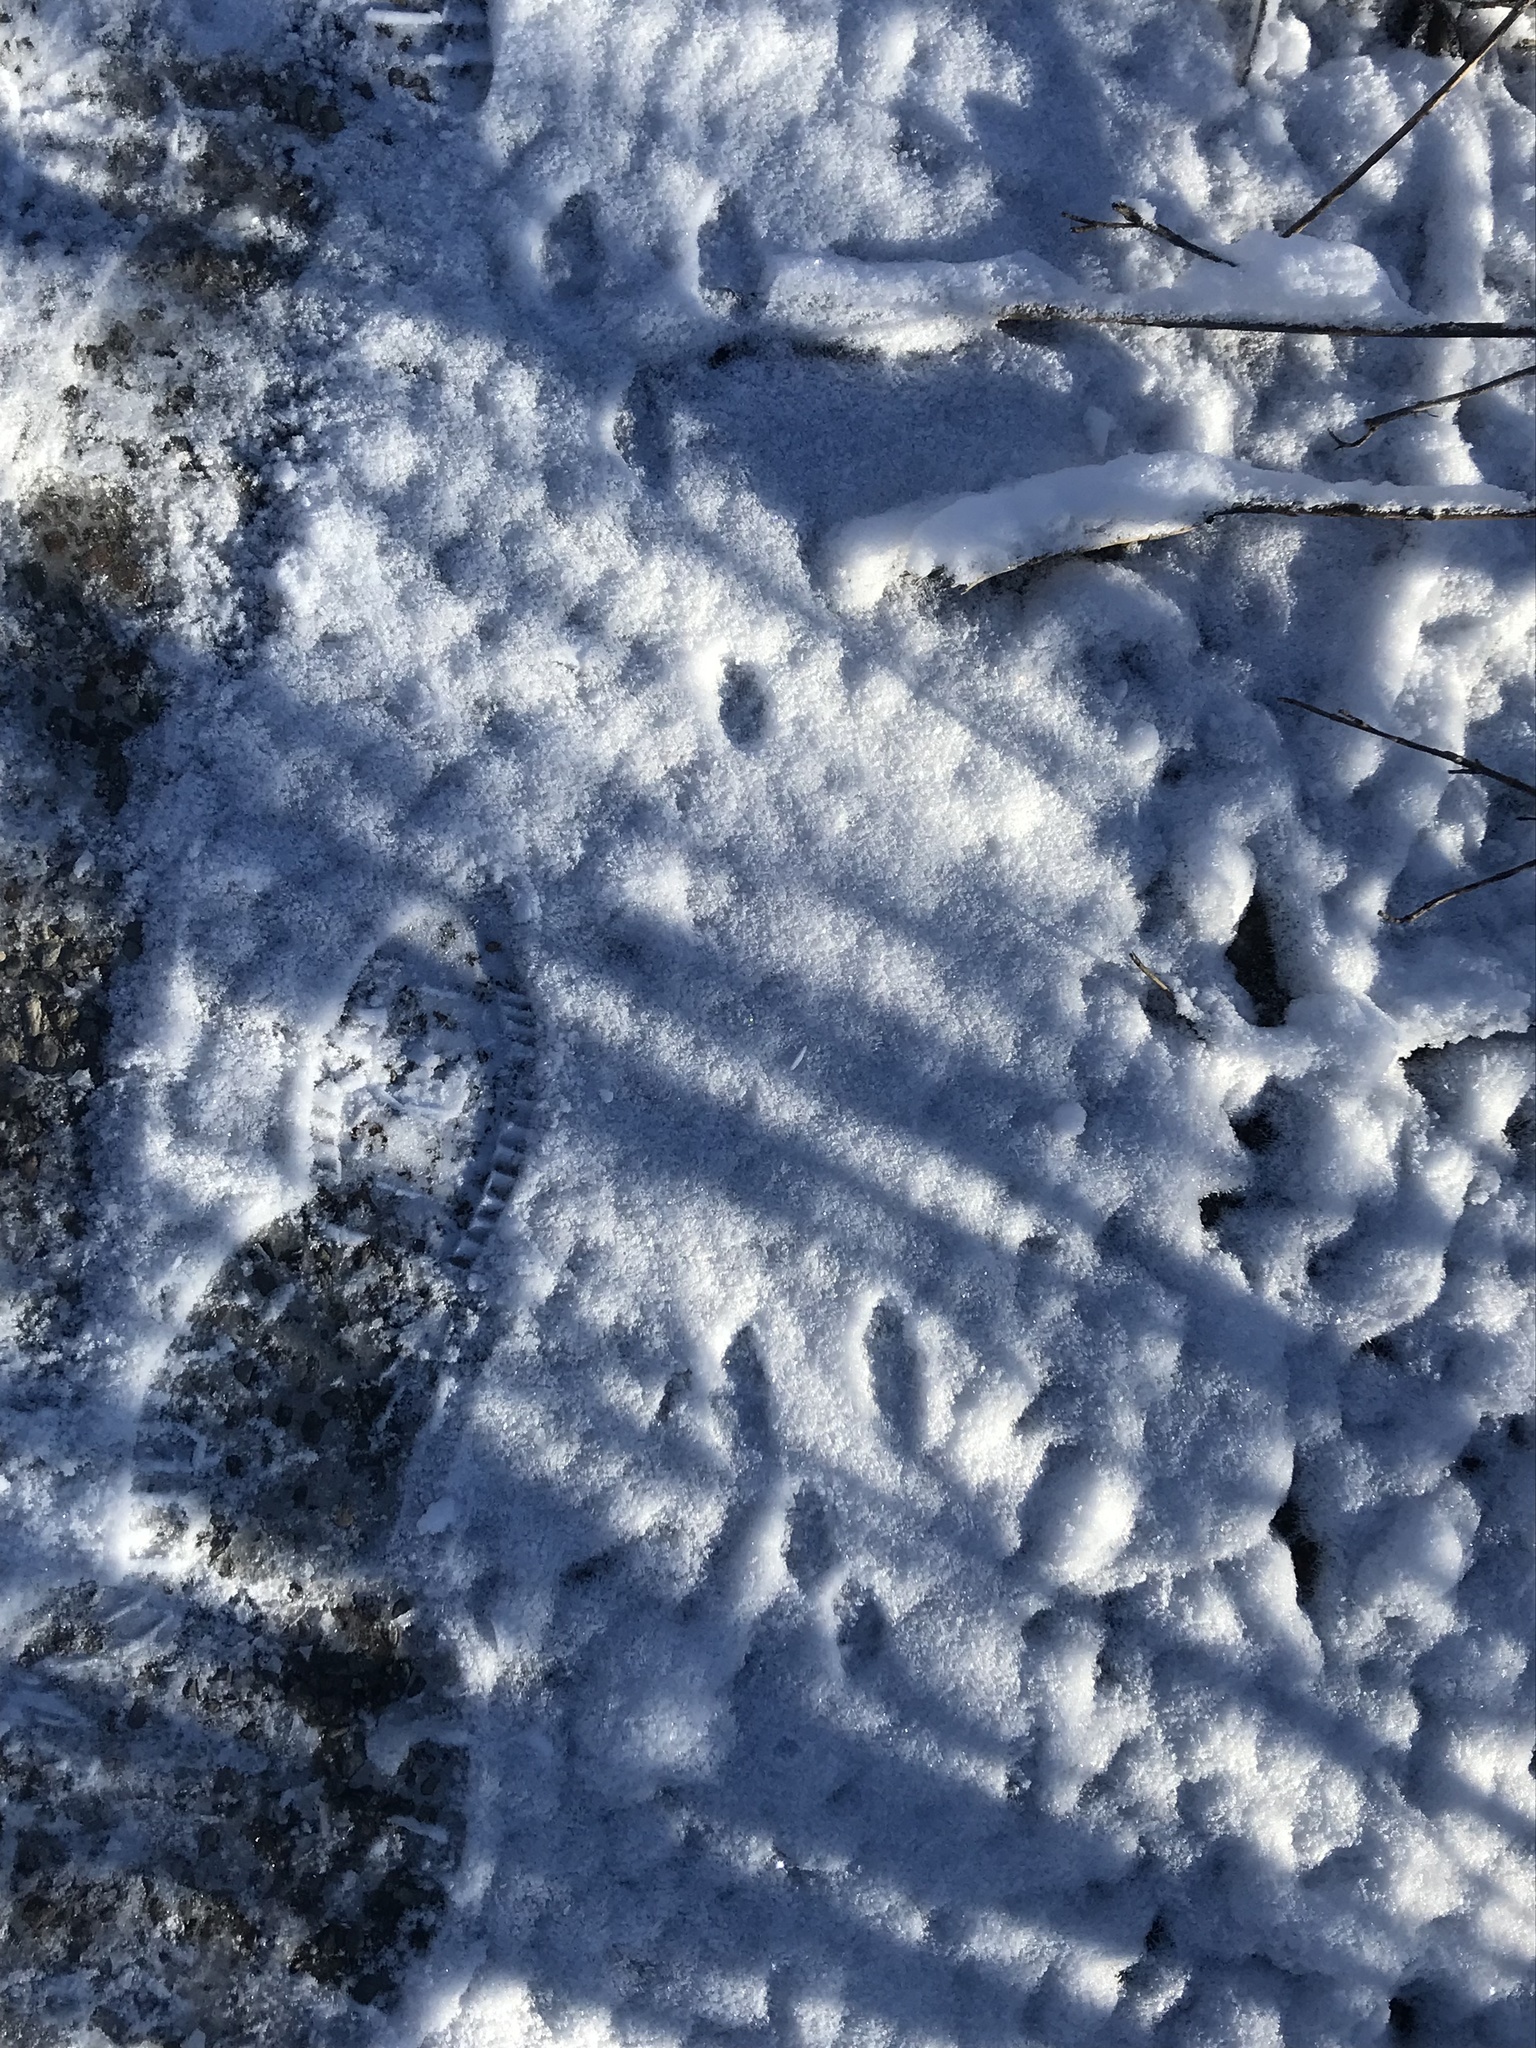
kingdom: Animalia
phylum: Chordata
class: Mammalia
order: Lagomorpha
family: Leporidae
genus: Sylvilagus
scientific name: Sylvilagus floridanus
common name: Eastern cottontail
